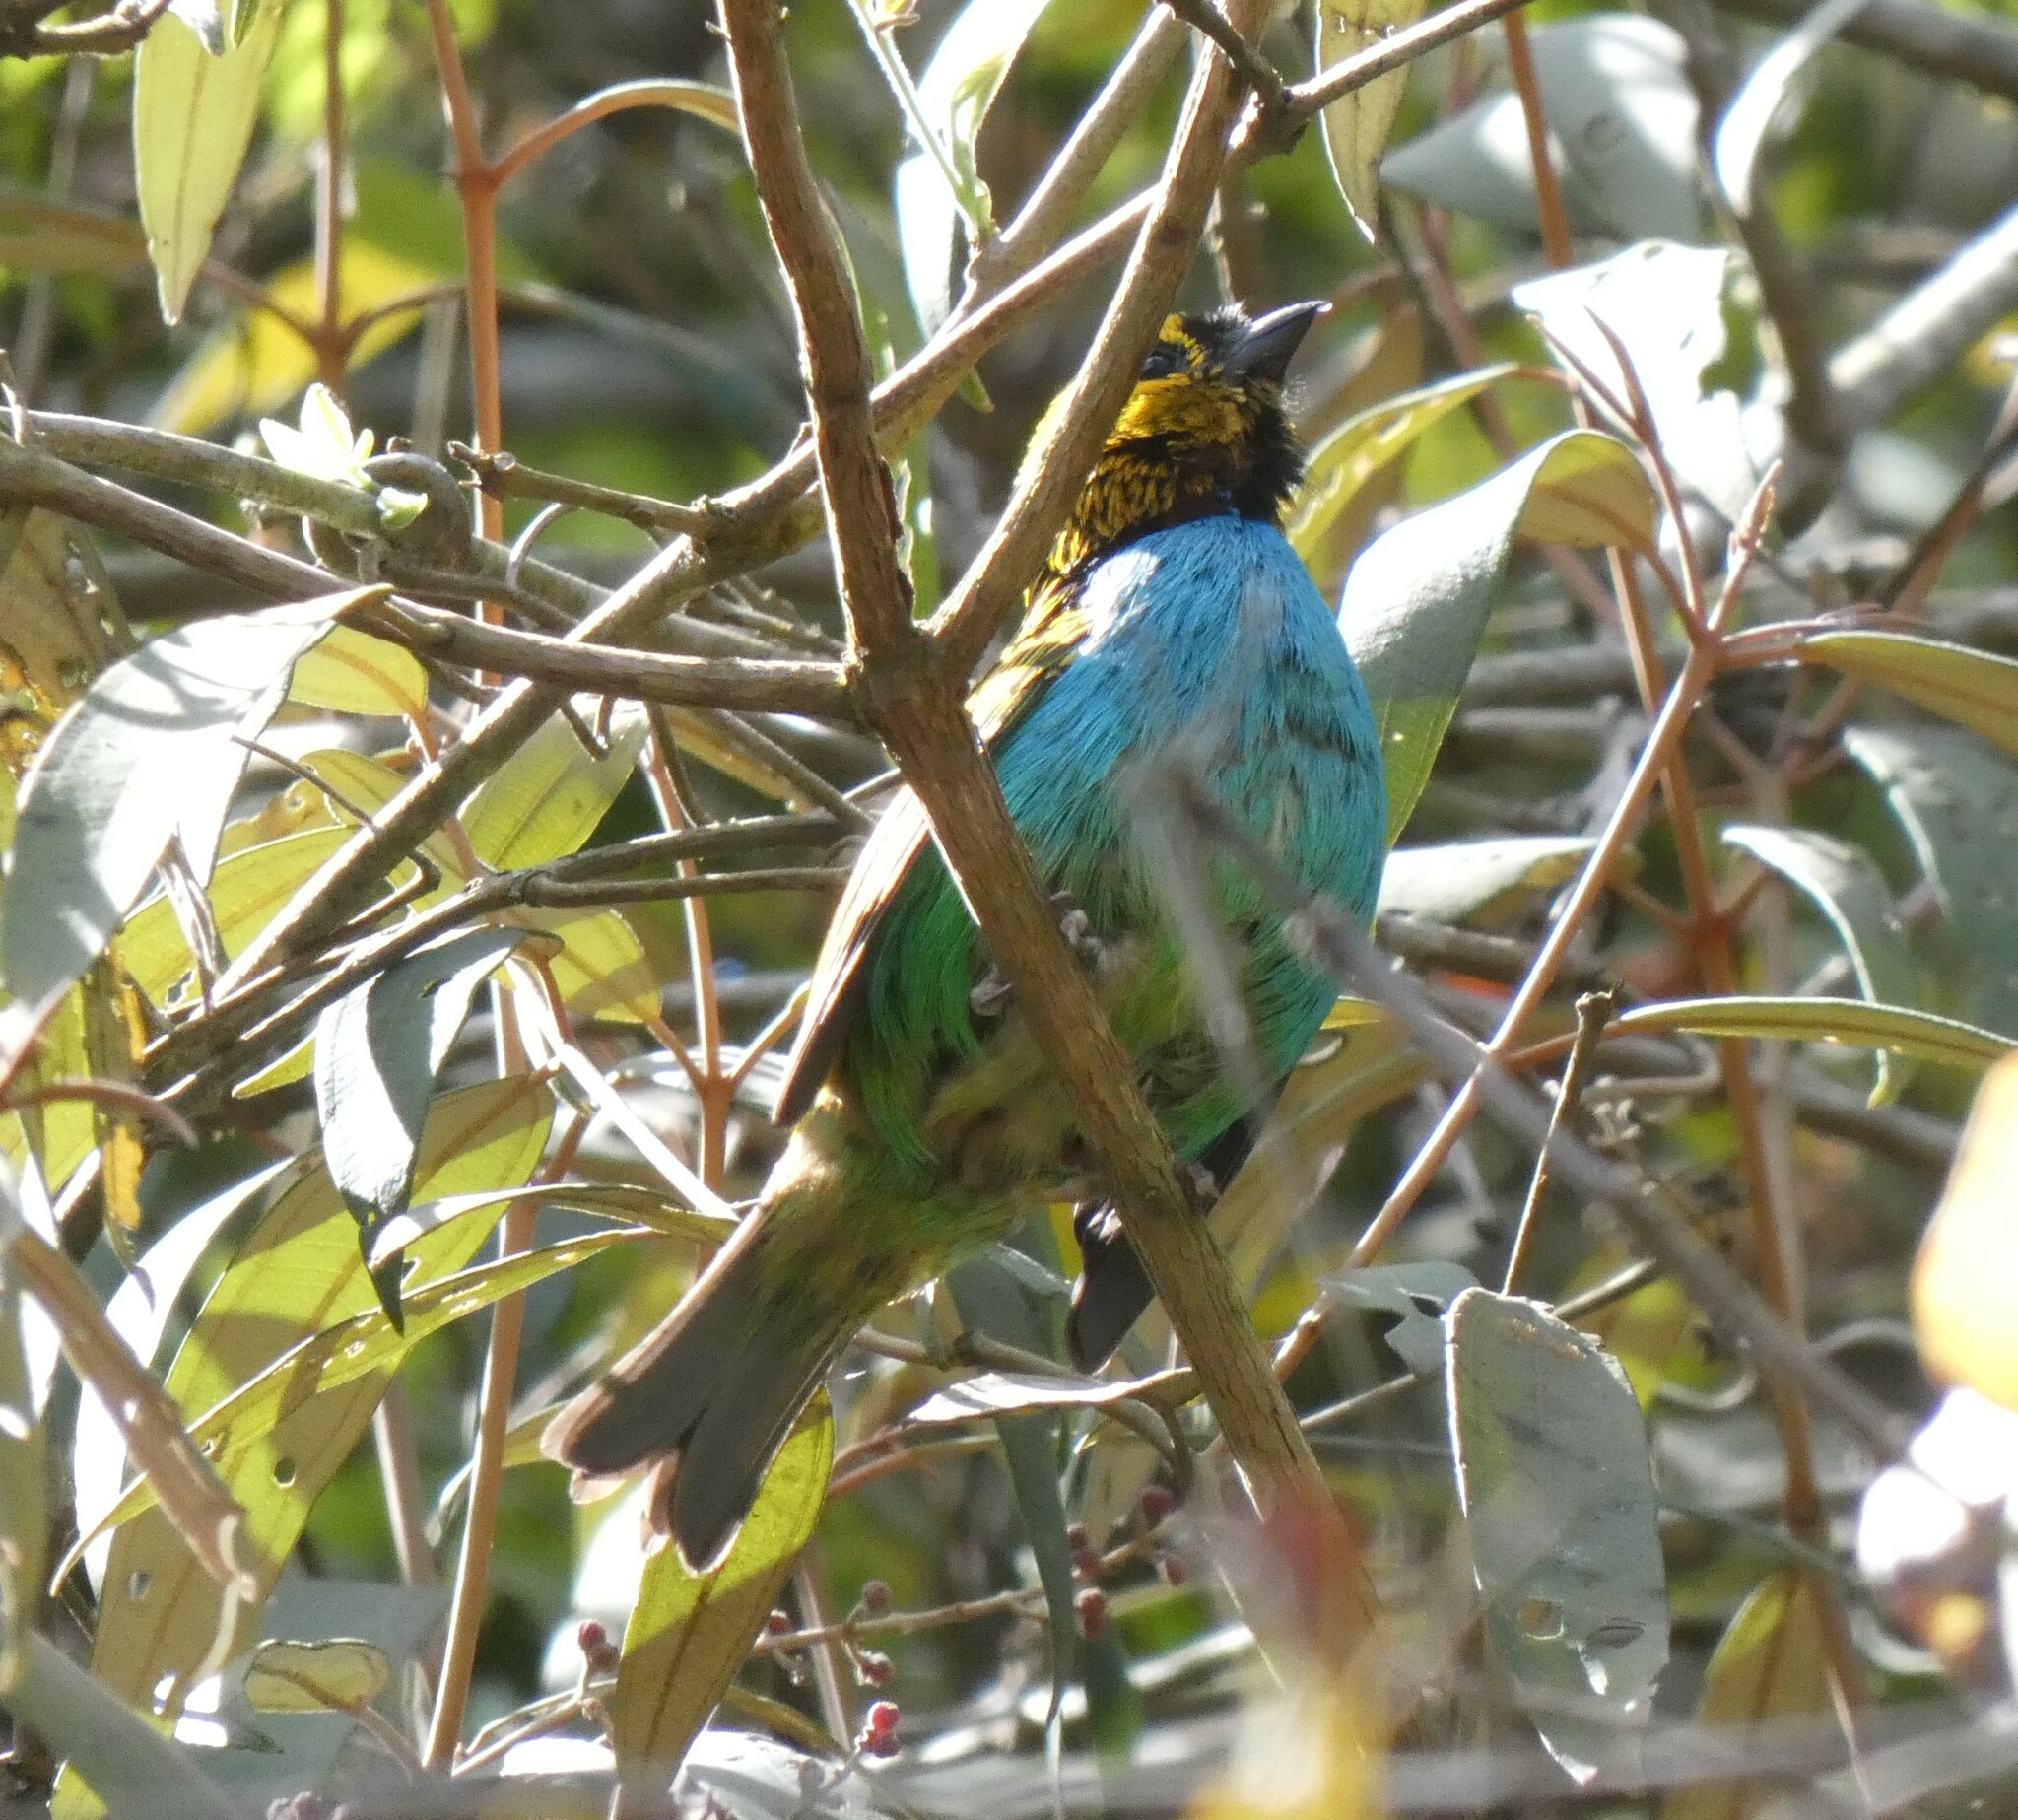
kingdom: Animalia
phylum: Chordata
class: Aves
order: Passeriformes
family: Thraupidae
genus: Tangara
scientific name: Tangara cyanoventris
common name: Gilt-edged tanager
